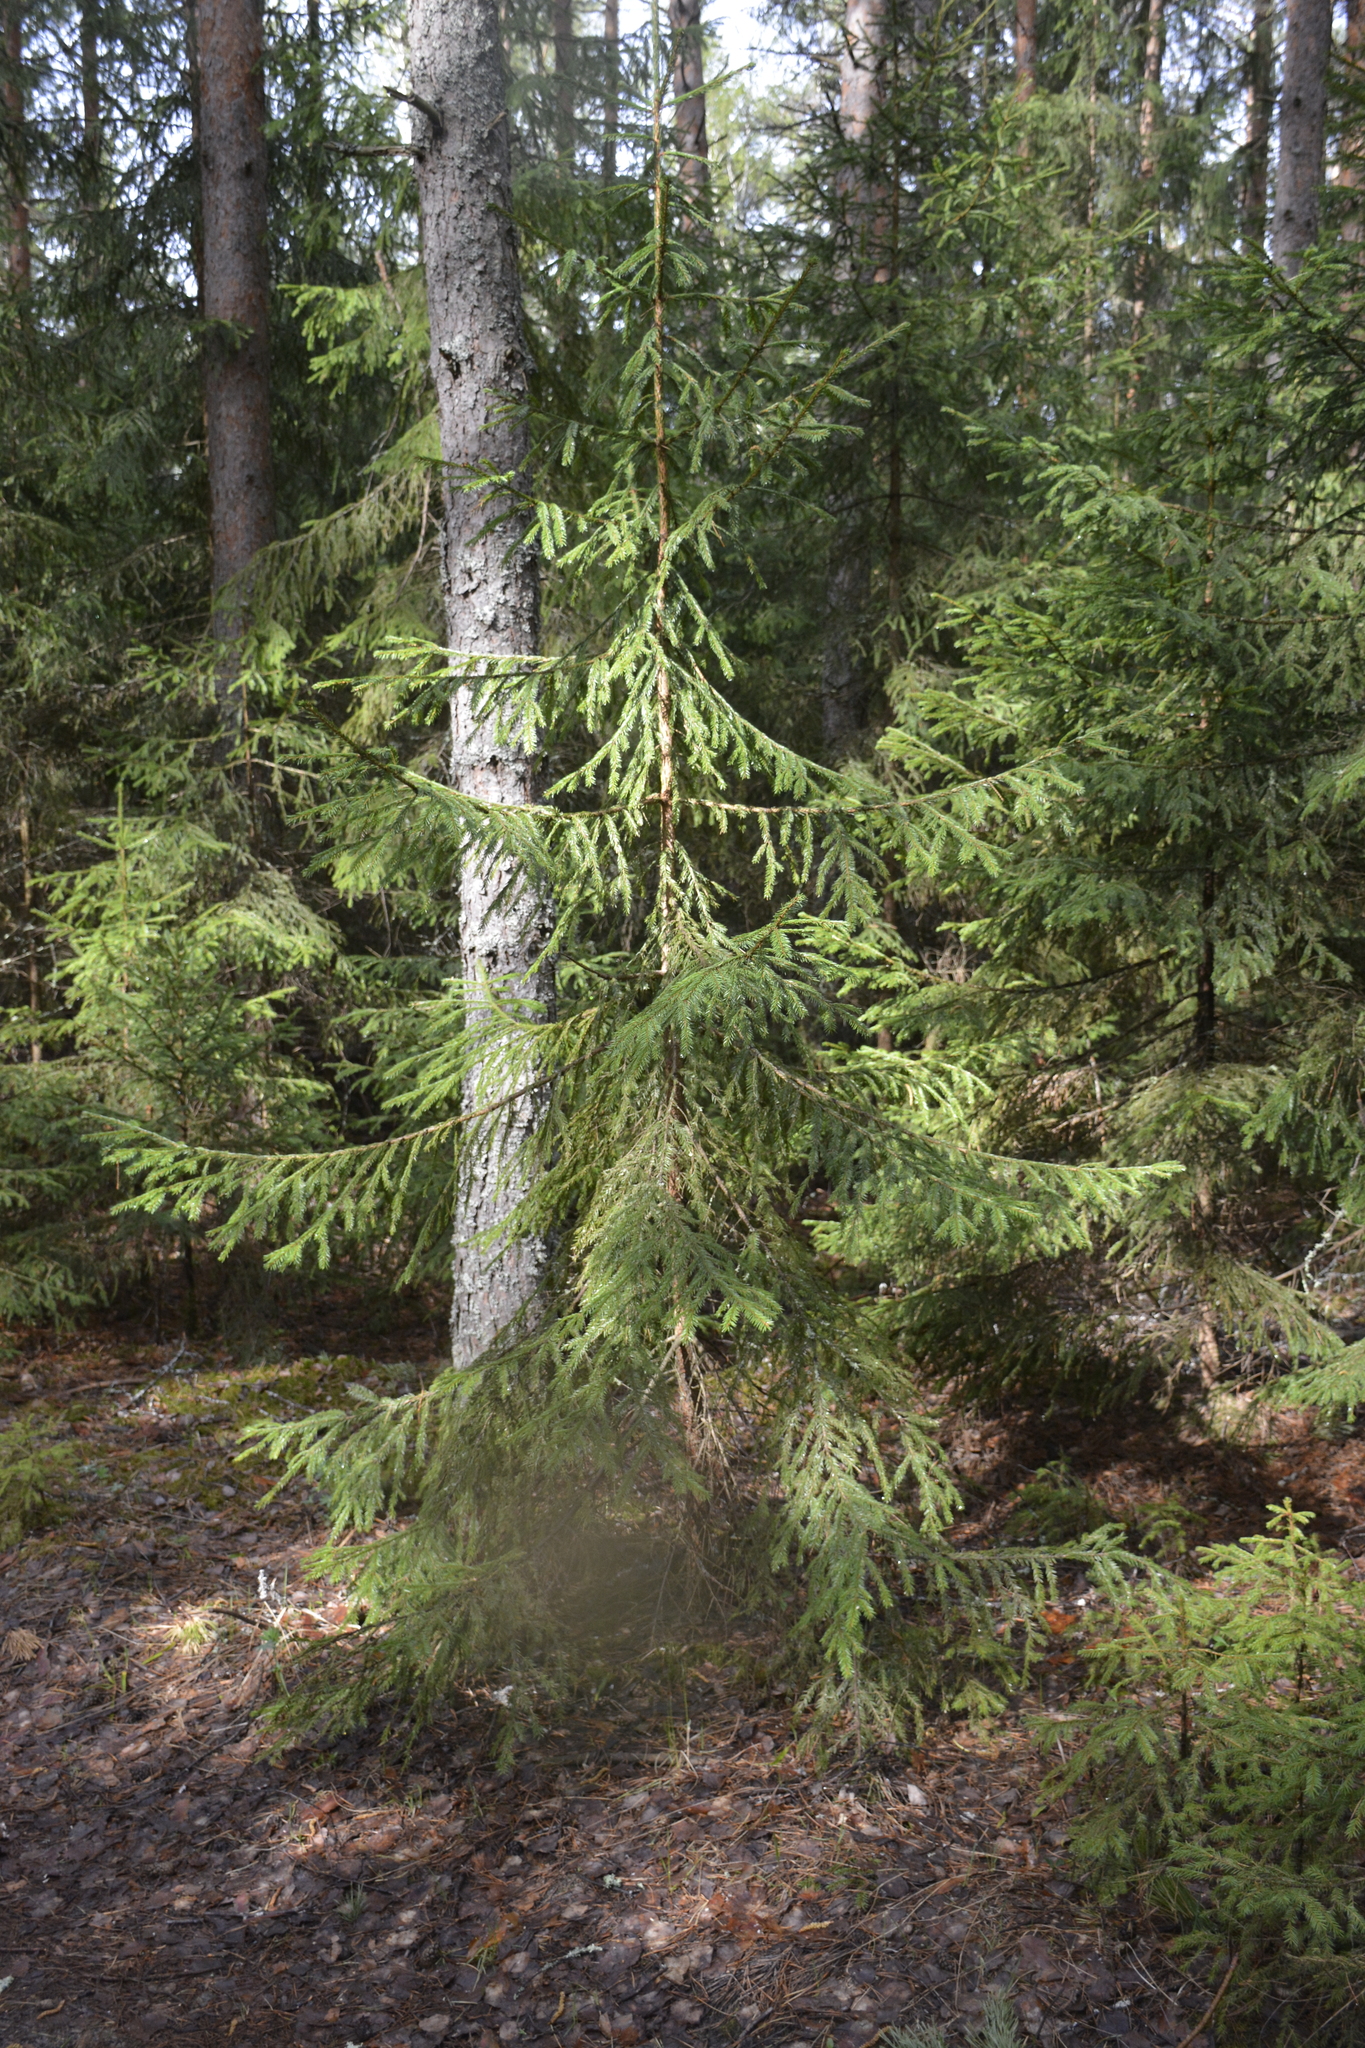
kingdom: Plantae
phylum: Tracheophyta
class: Pinopsida
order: Pinales
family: Pinaceae
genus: Picea
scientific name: Picea abies
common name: Norway spruce
